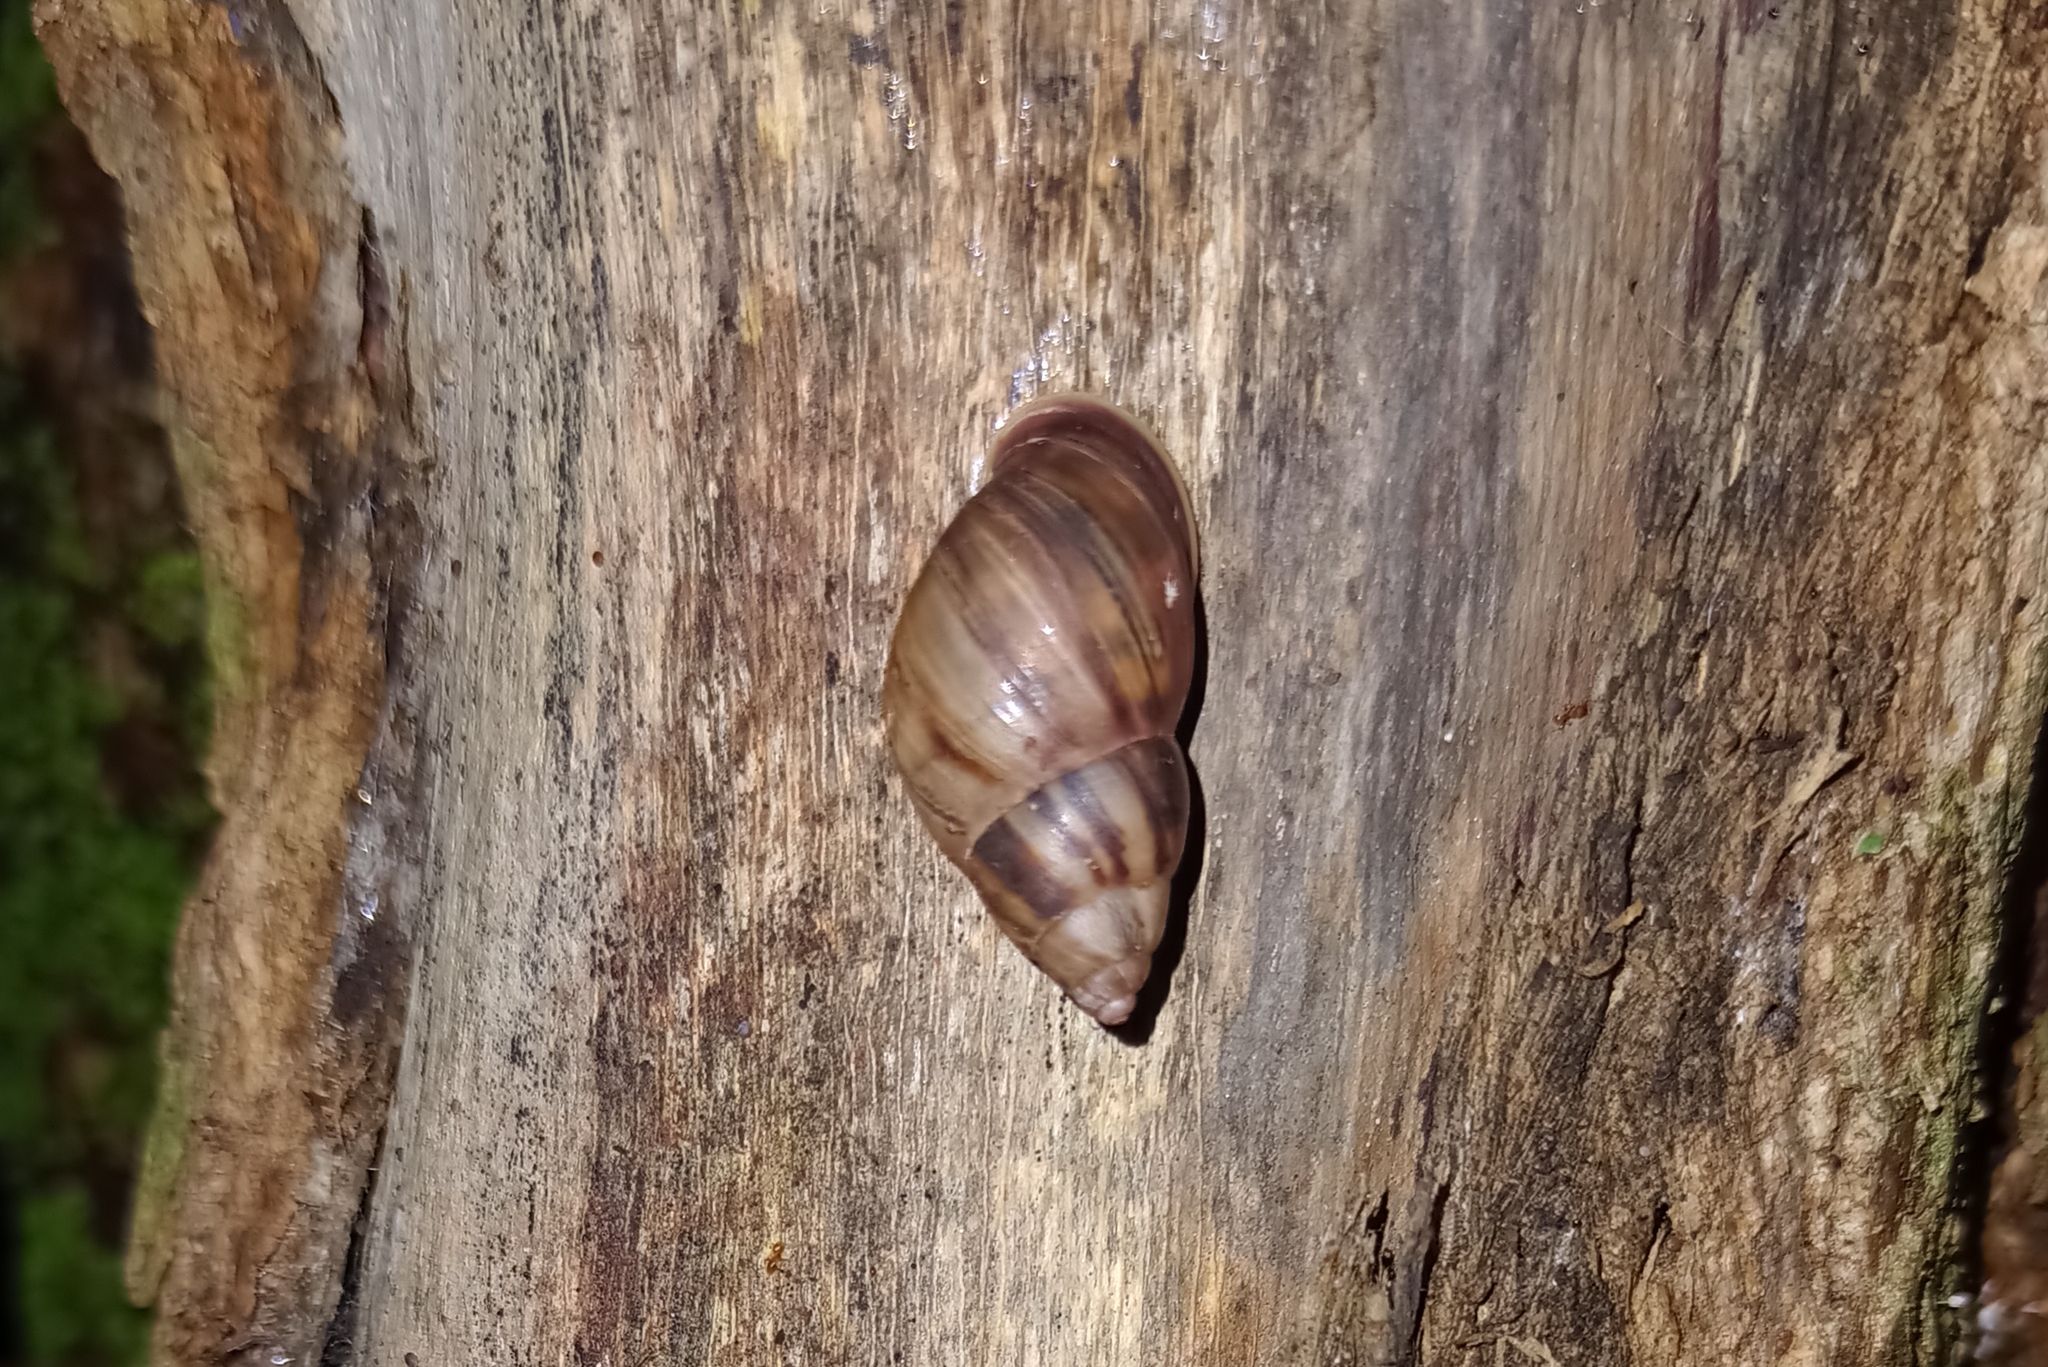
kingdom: Animalia
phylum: Mollusca
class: Gastropoda
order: Stylommatophora
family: Bulimulidae
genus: Drymaeus
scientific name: Drymaeus magus
